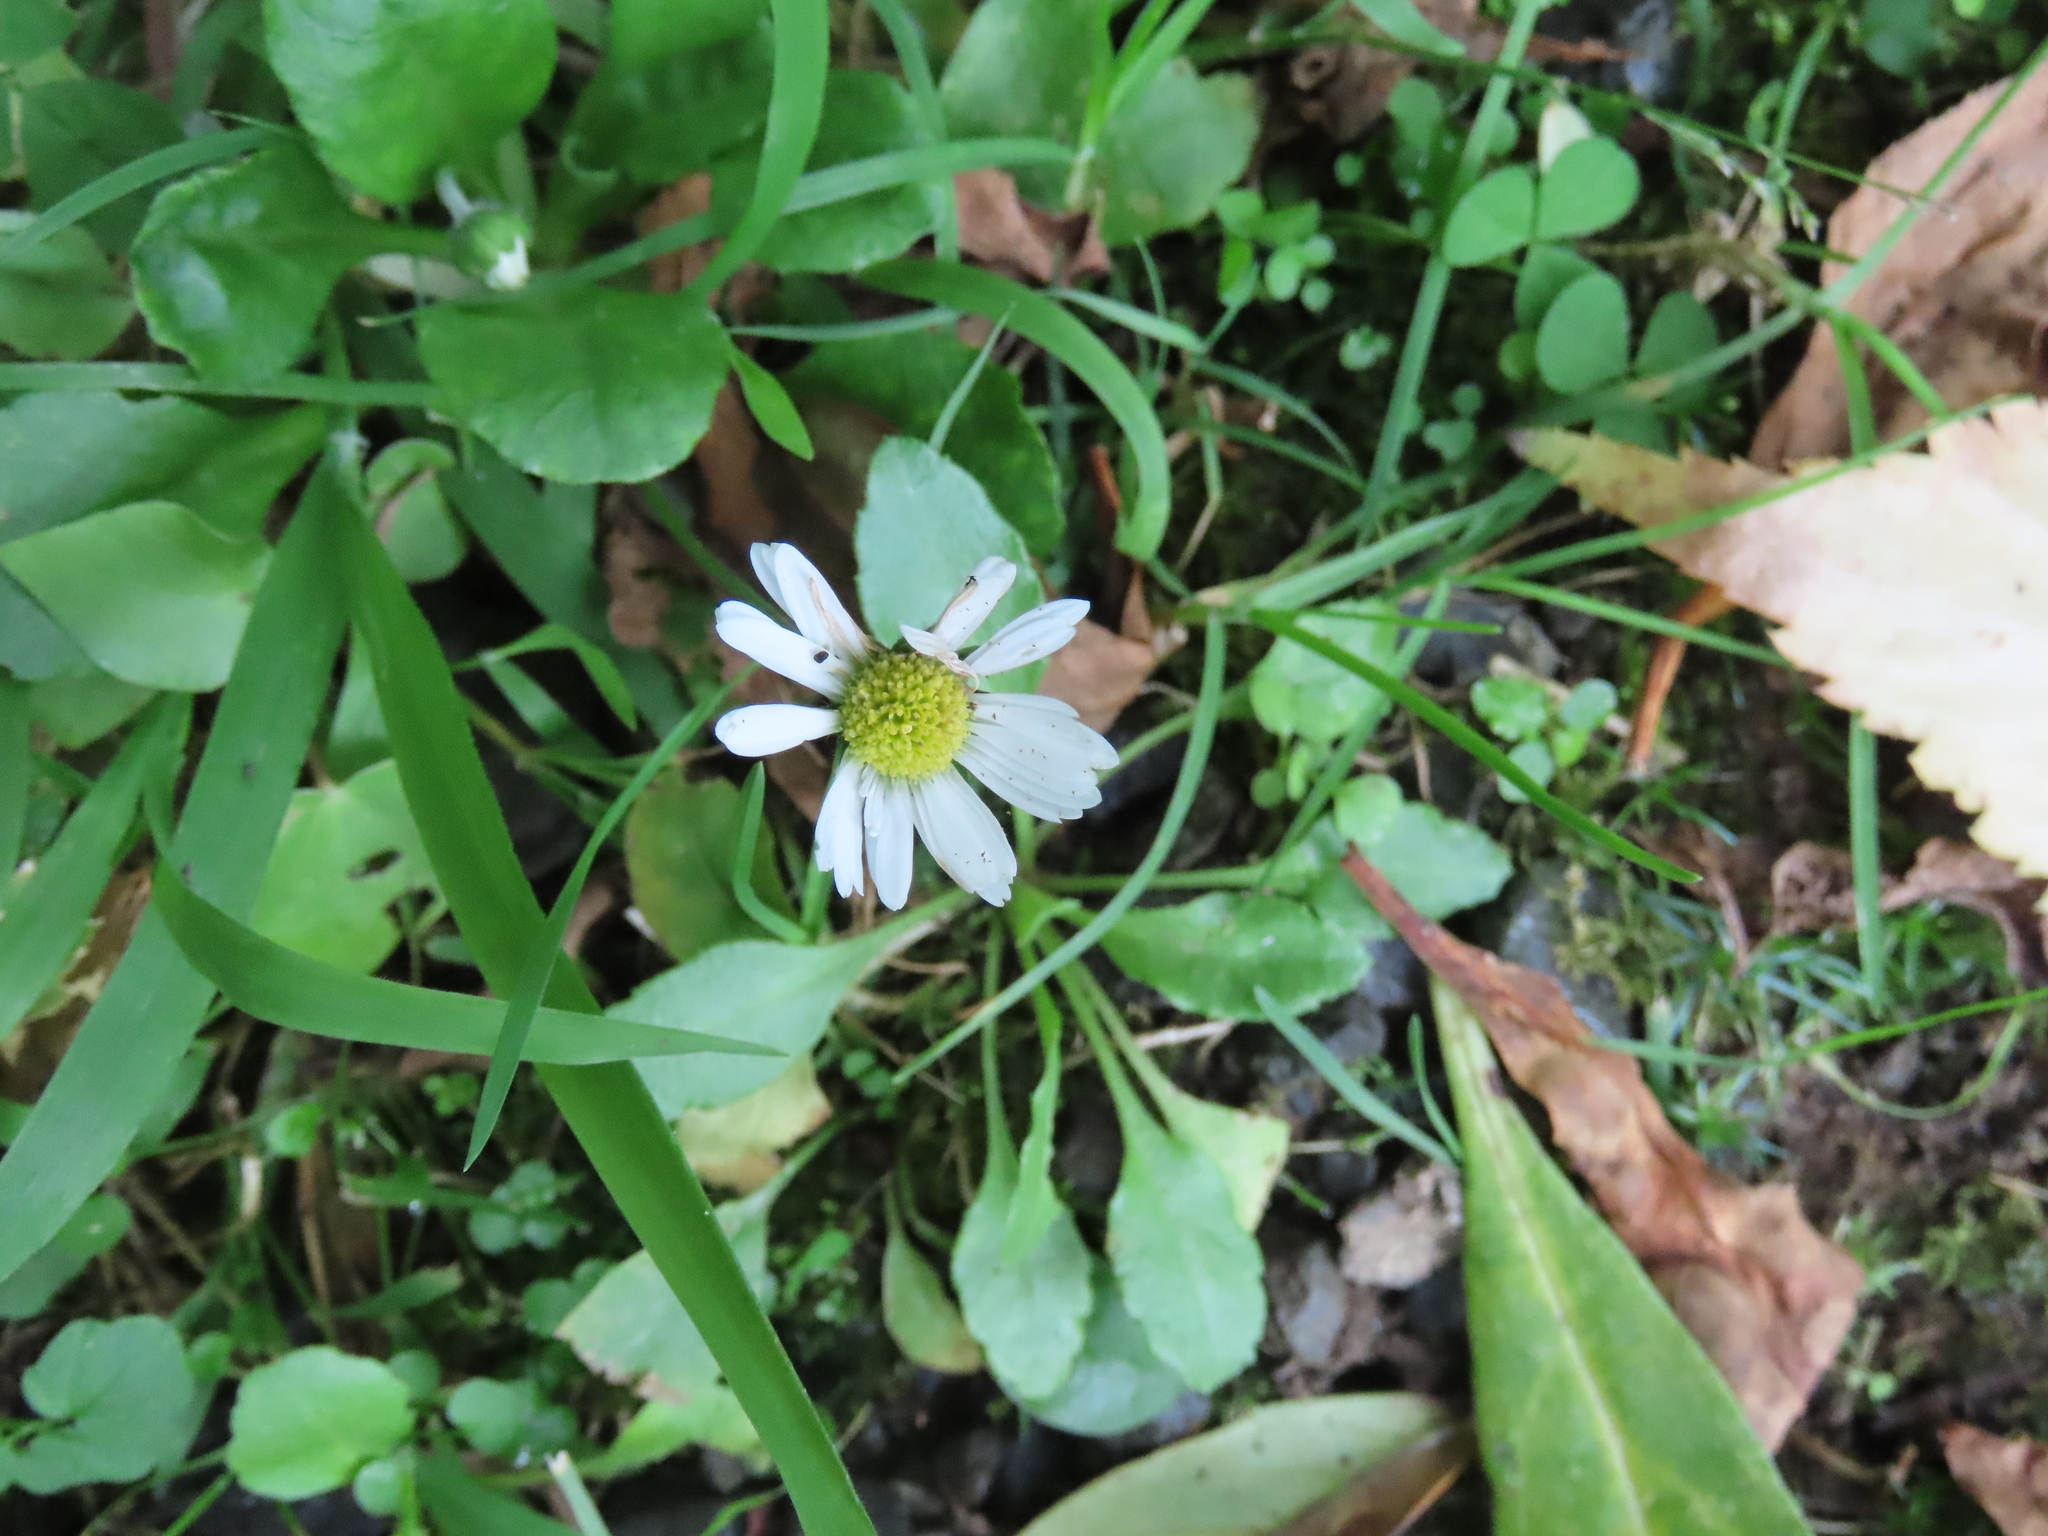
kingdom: Plantae
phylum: Tracheophyta
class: Magnoliopsida
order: Asterales
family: Asteraceae
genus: Bellis
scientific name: Bellis perennis
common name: Lawndaisy
